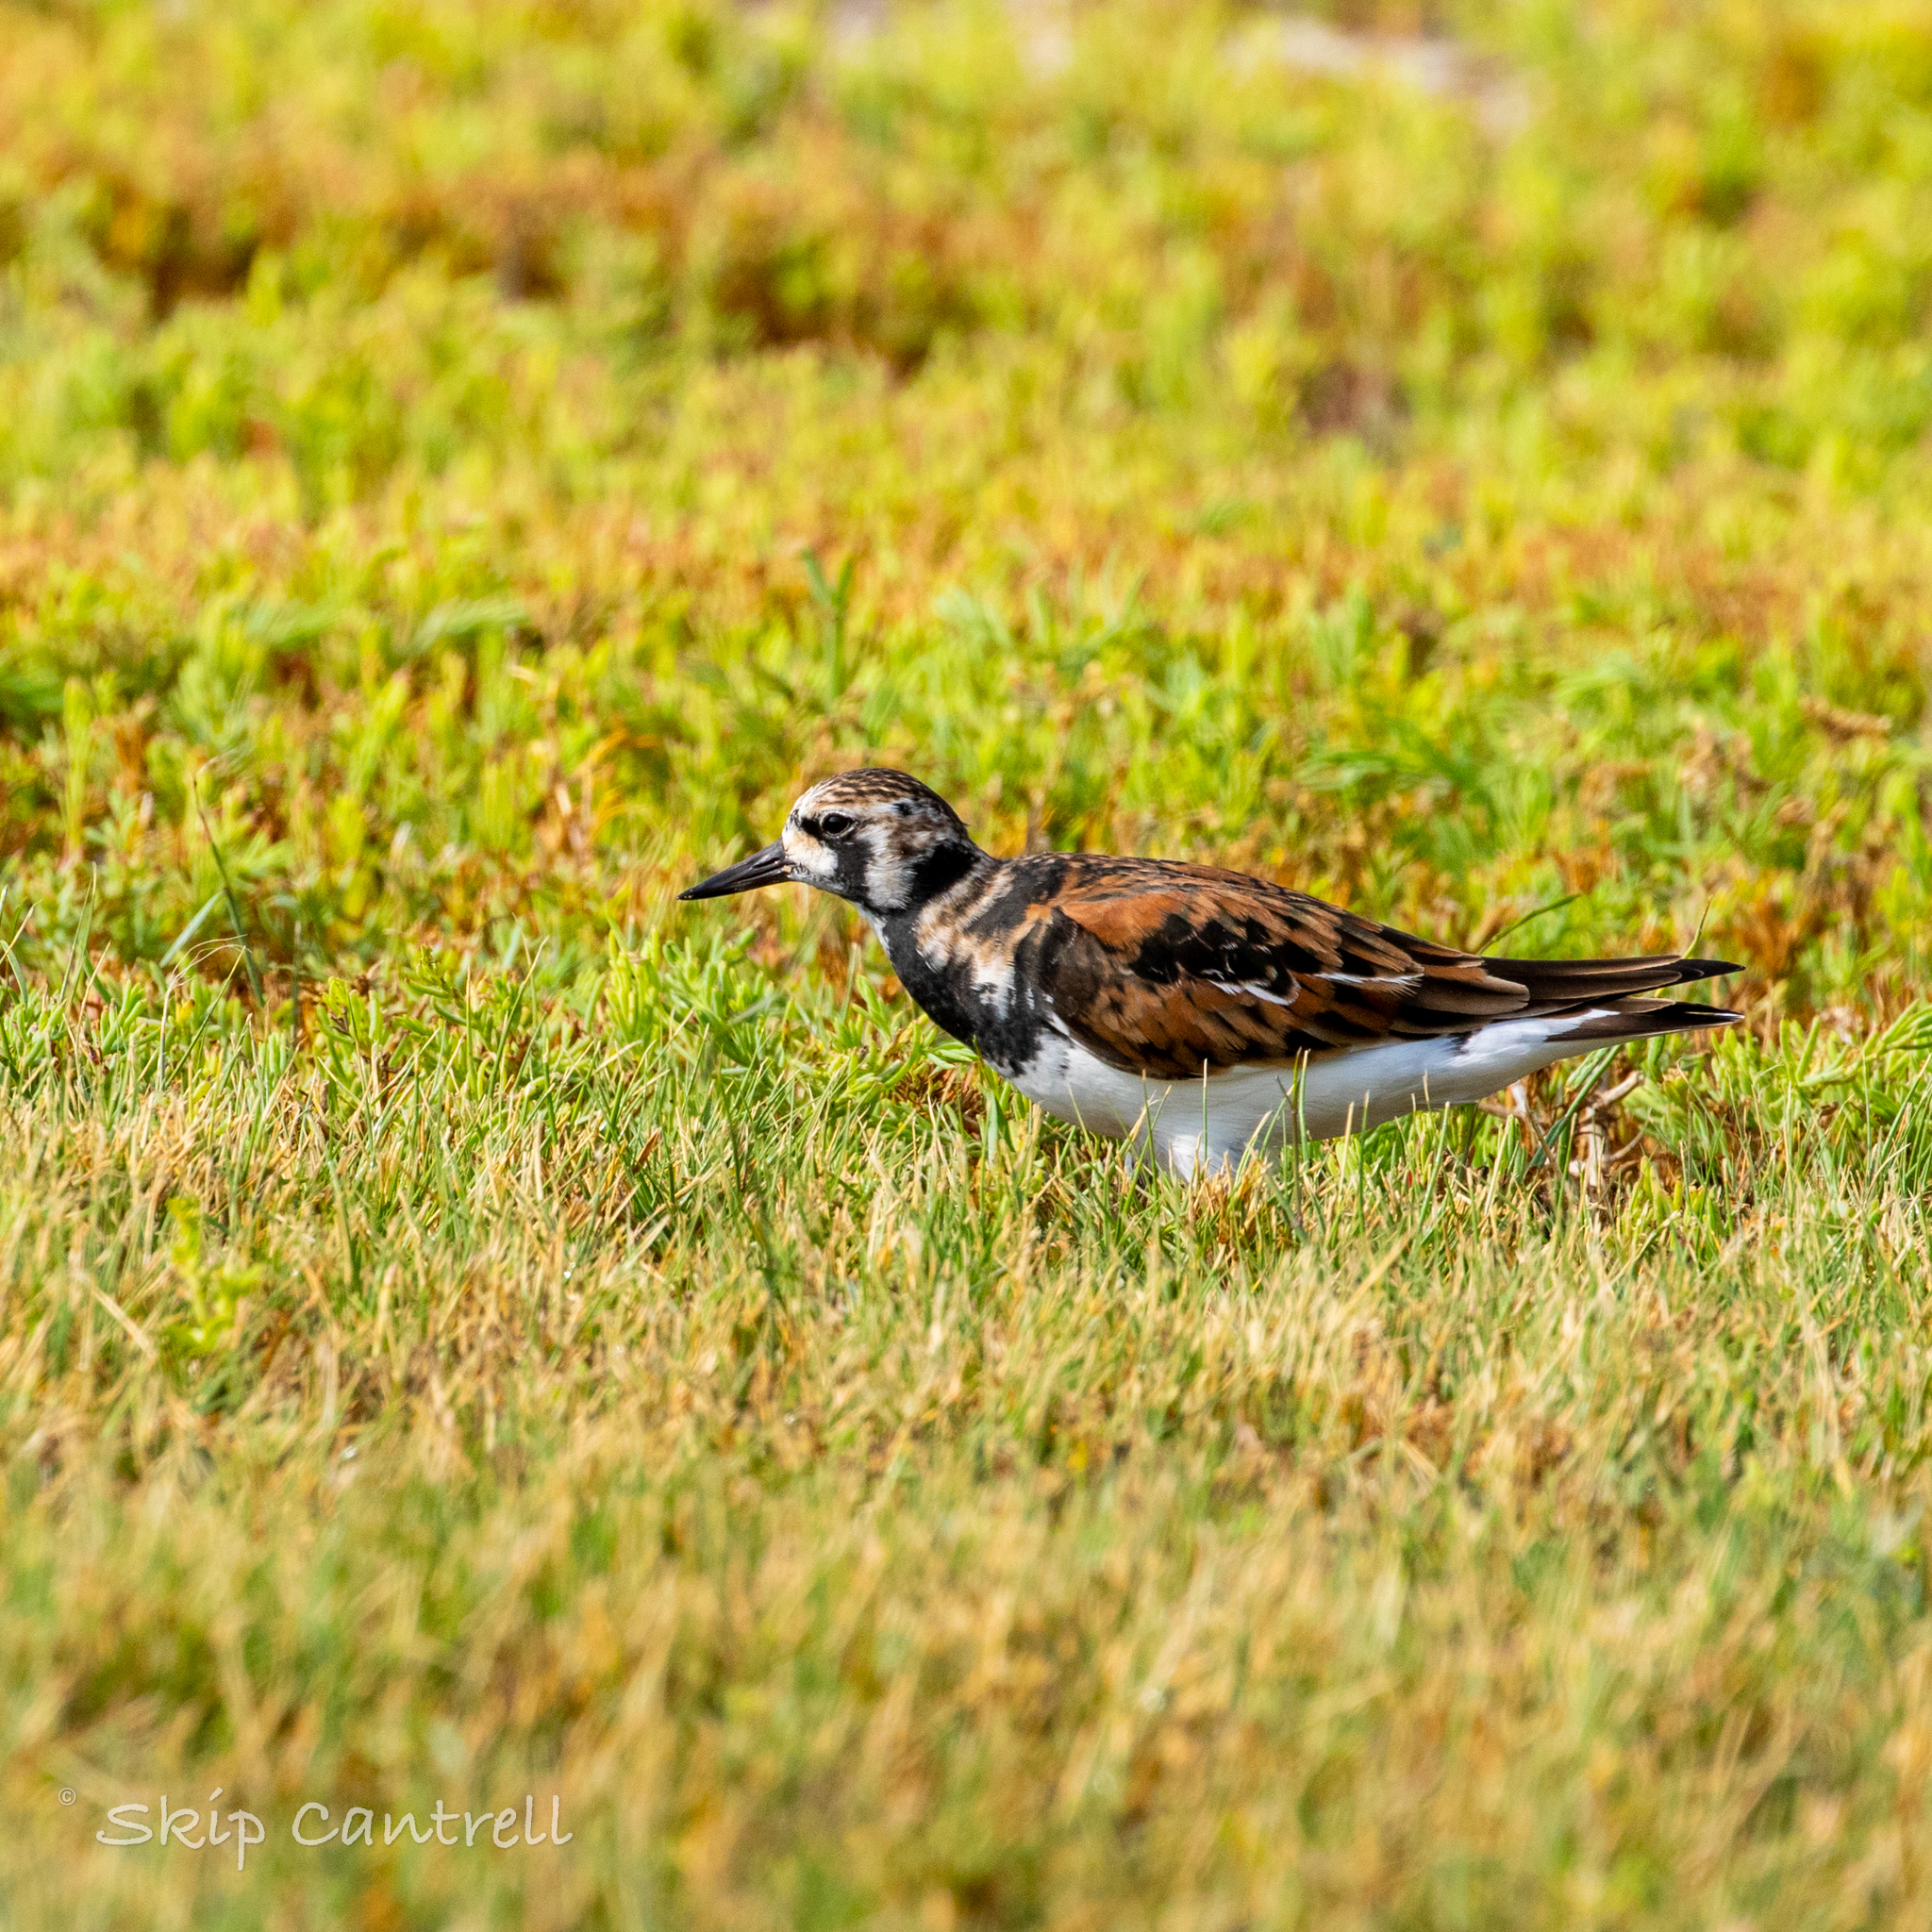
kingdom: Animalia
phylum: Chordata
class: Aves
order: Charadriiformes
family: Scolopacidae
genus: Arenaria
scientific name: Arenaria interpres
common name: Ruddy turnstone
